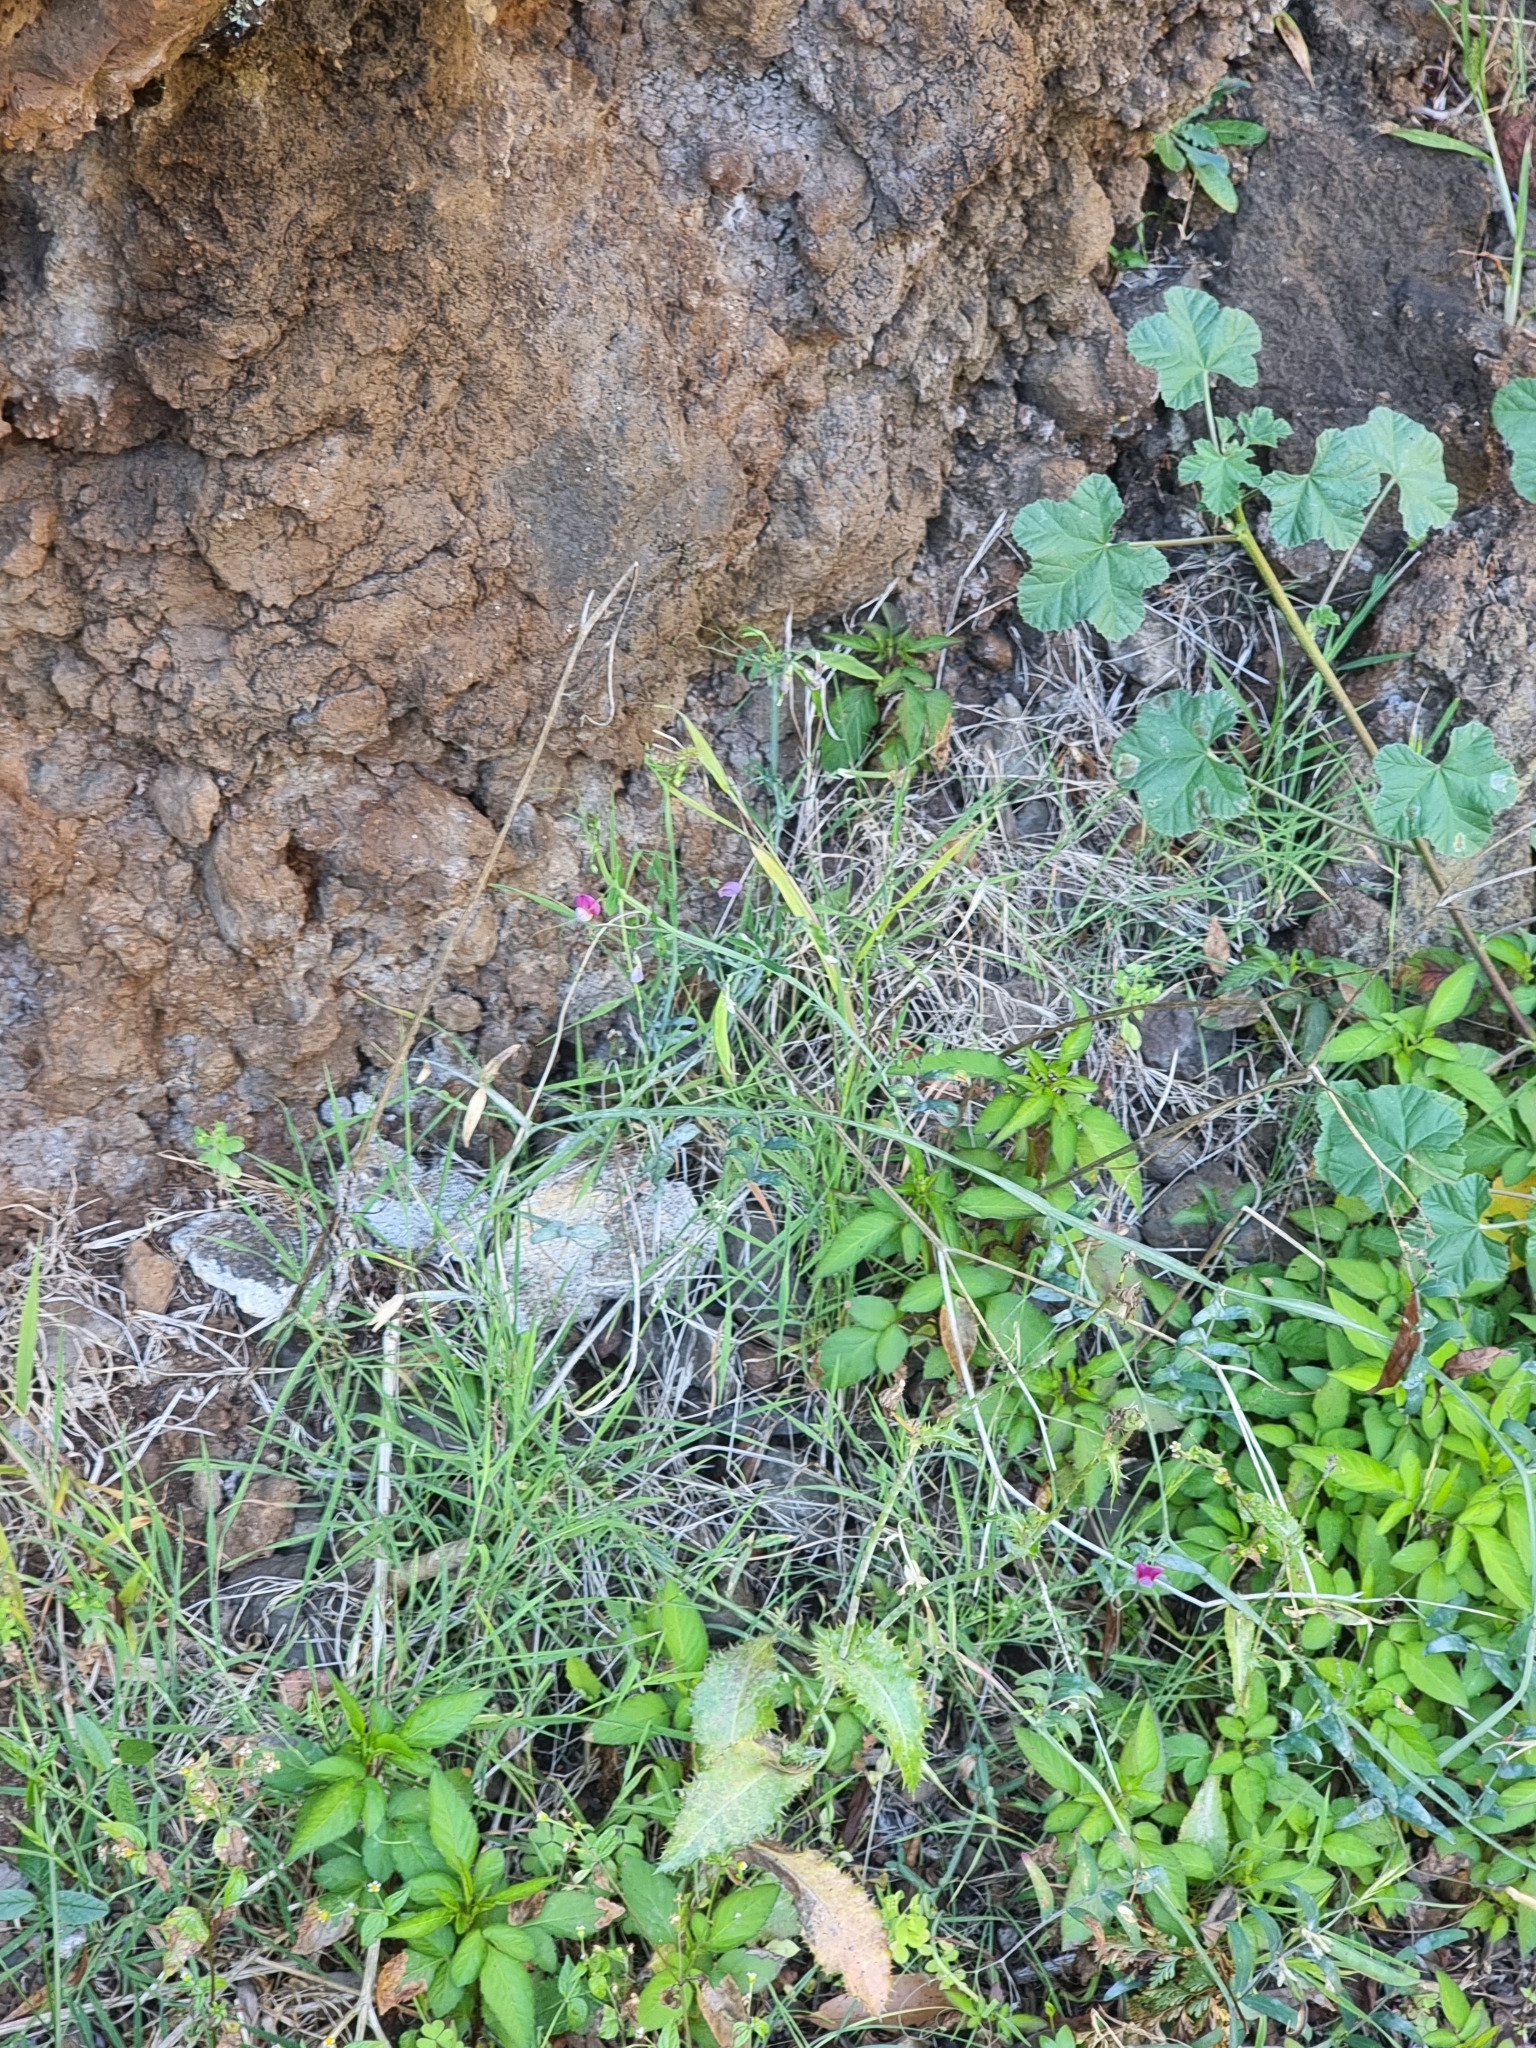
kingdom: Plantae
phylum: Tracheophyta
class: Magnoliopsida
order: Fabales
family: Fabaceae
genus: Lathyrus
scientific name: Lathyrus clymenum
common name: Spanish vetchling
